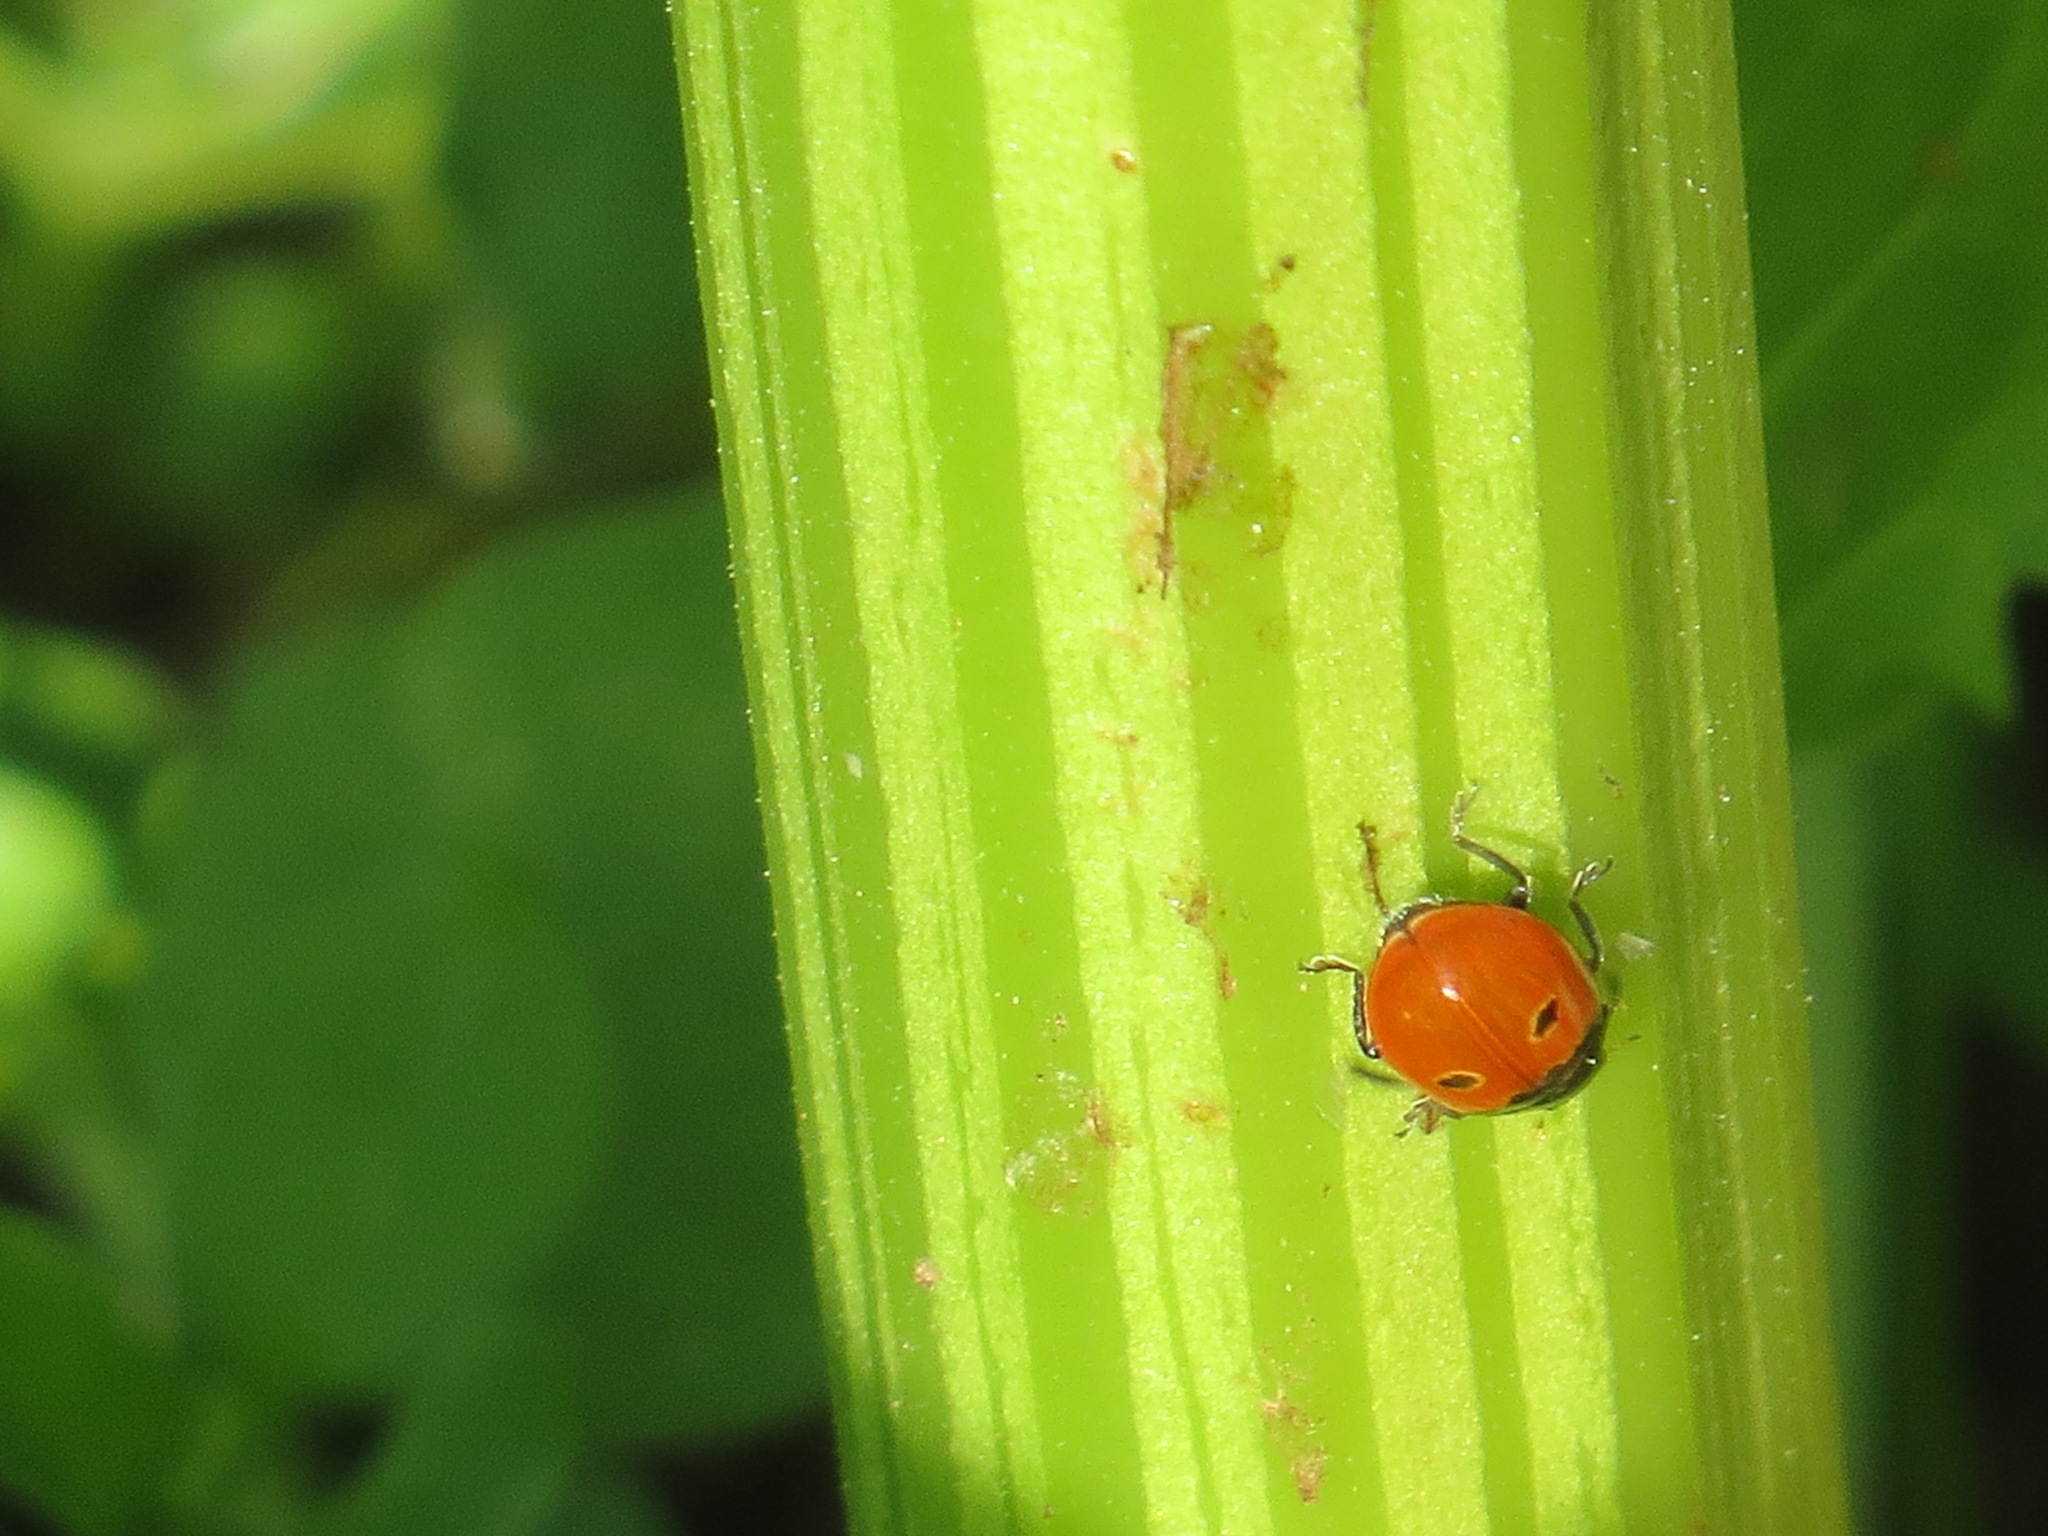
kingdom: Animalia
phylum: Arthropoda
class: Insecta
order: Coleoptera
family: Coccinellidae
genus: Coccinella
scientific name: Coccinella trifasciata
